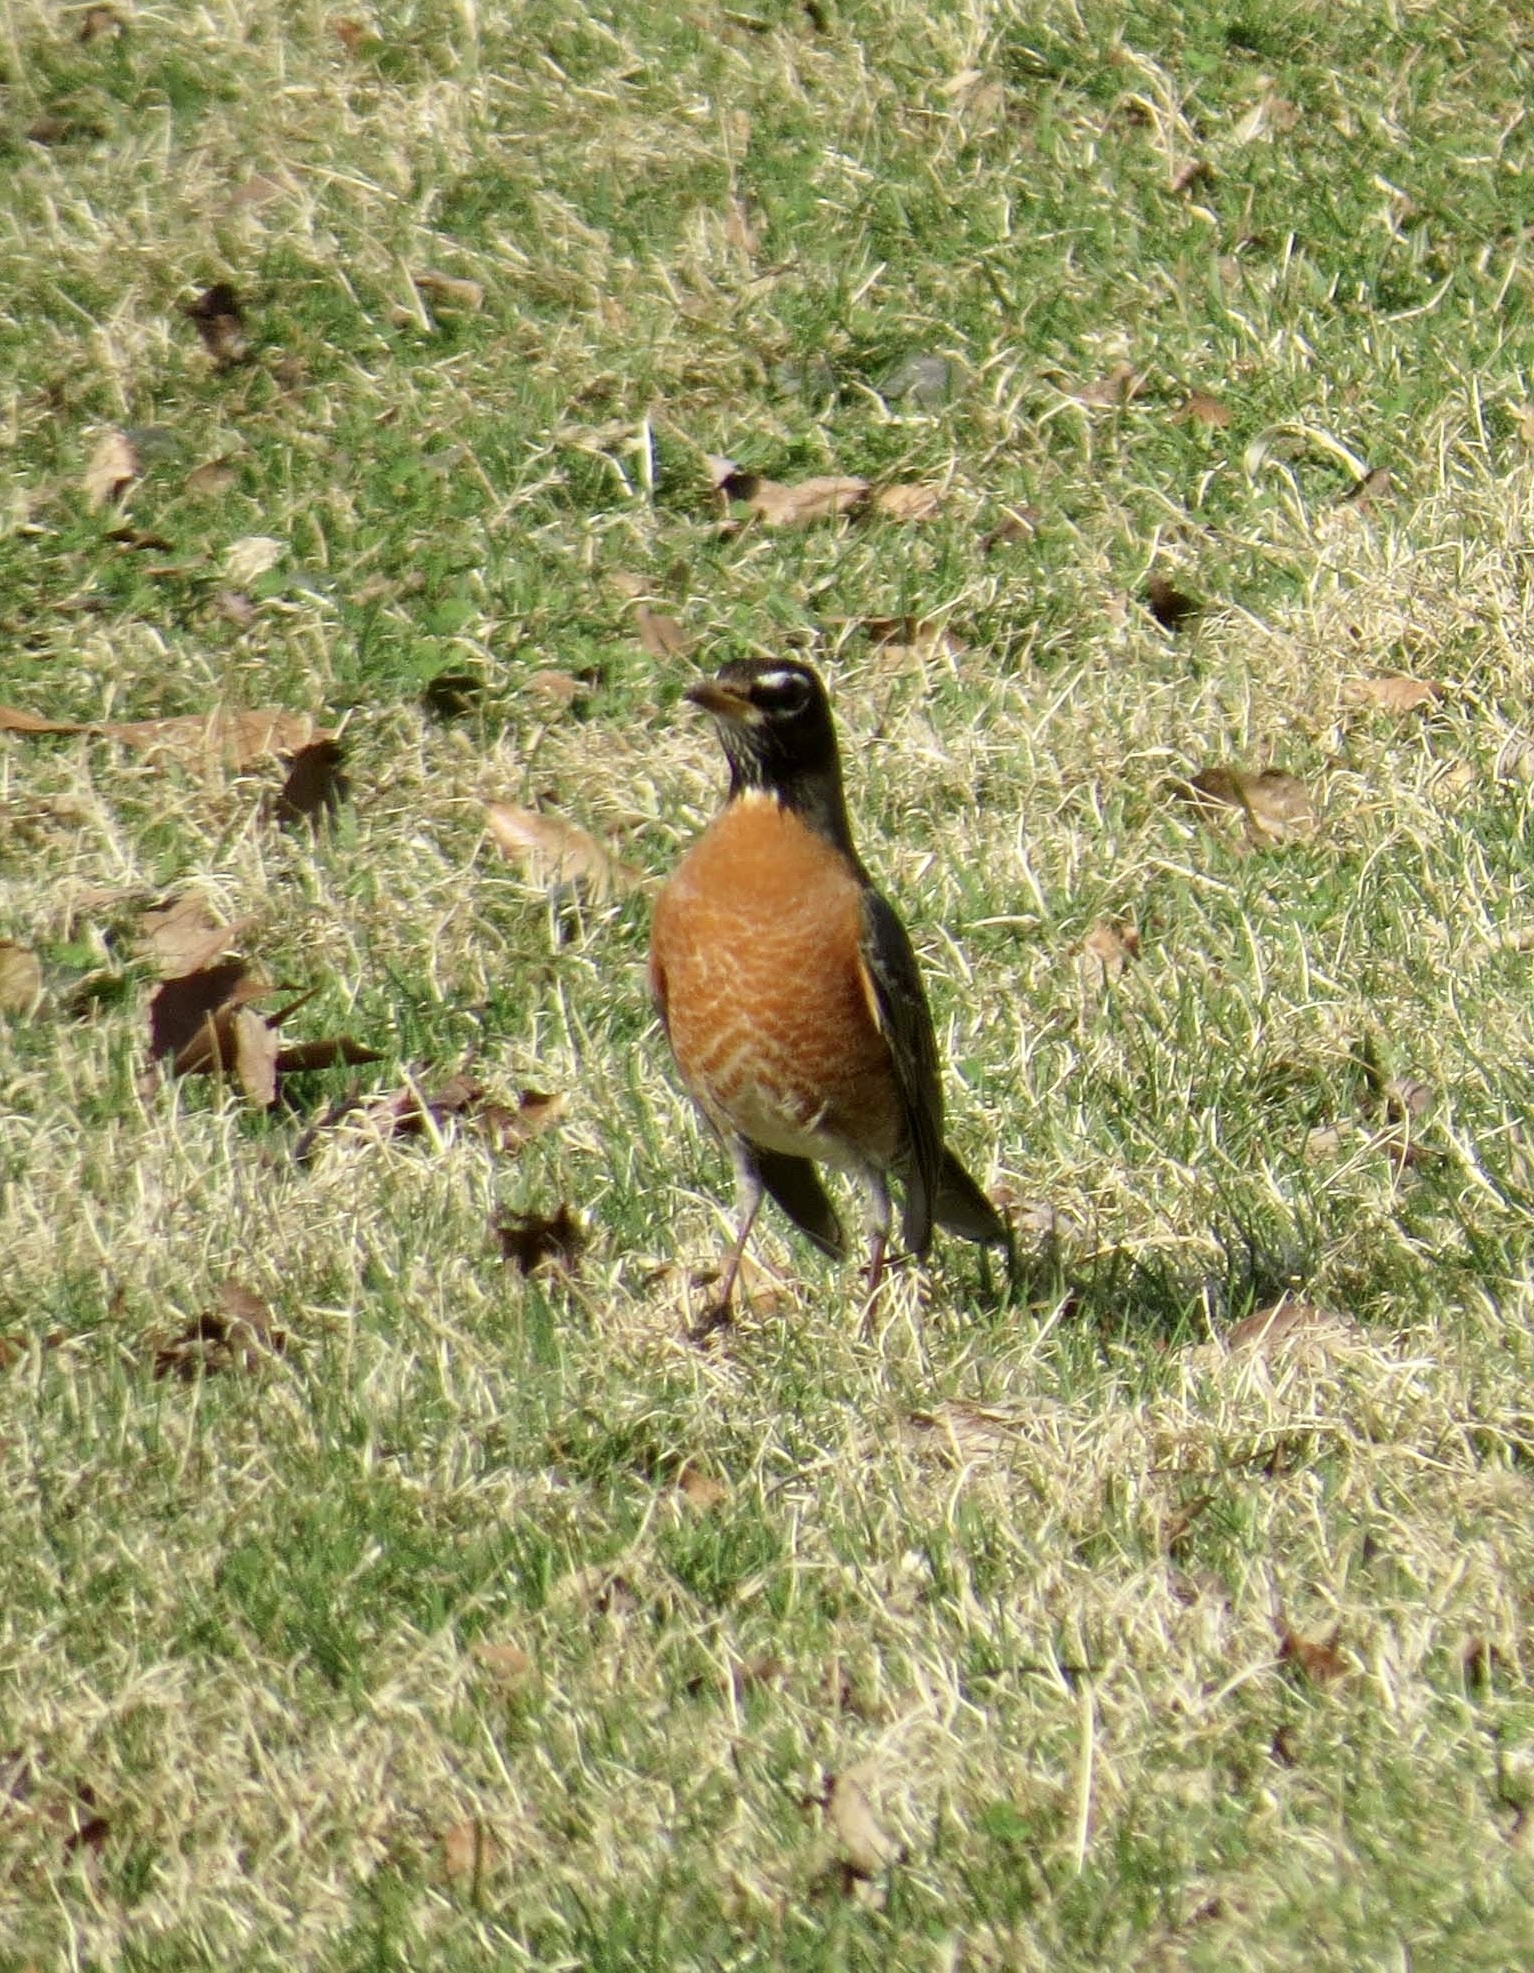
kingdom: Animalia
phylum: Chordata
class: Aves
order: Passeriformes
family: Turdidae
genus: Turdus
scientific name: Turdus migratorius
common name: American robin
